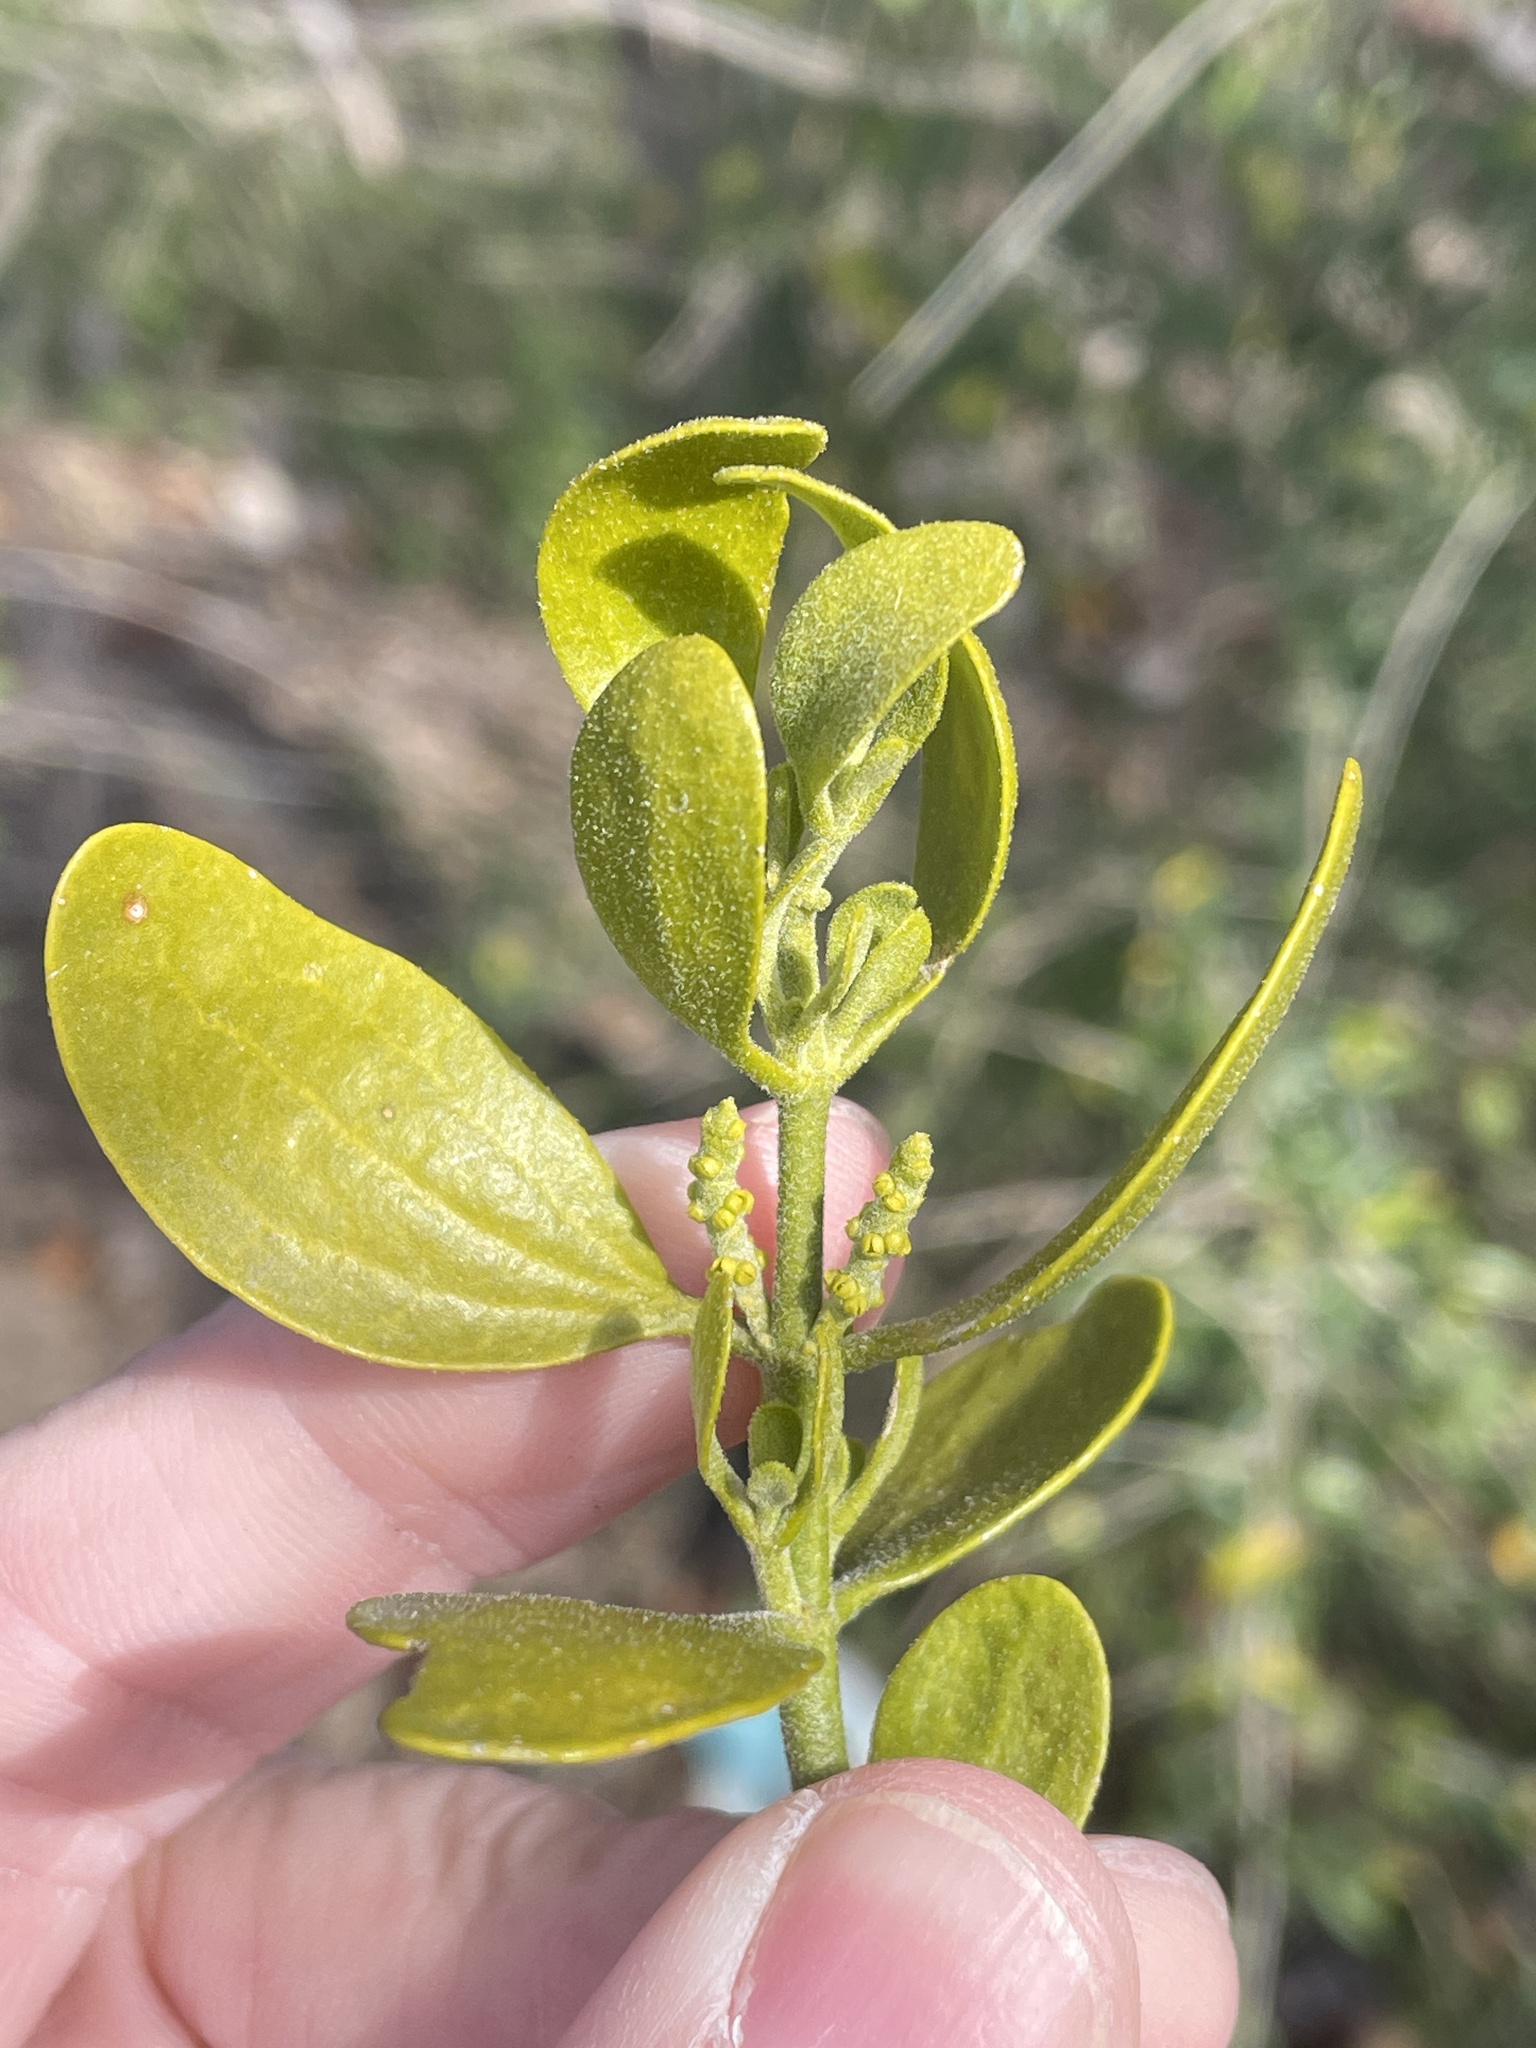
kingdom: Plantae
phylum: Tracheophyta
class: Magnoliopsida
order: Santalales
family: Viscaceae
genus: Phoradendron
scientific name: Phoradendron leucarpum
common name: Pacific mistletoe
